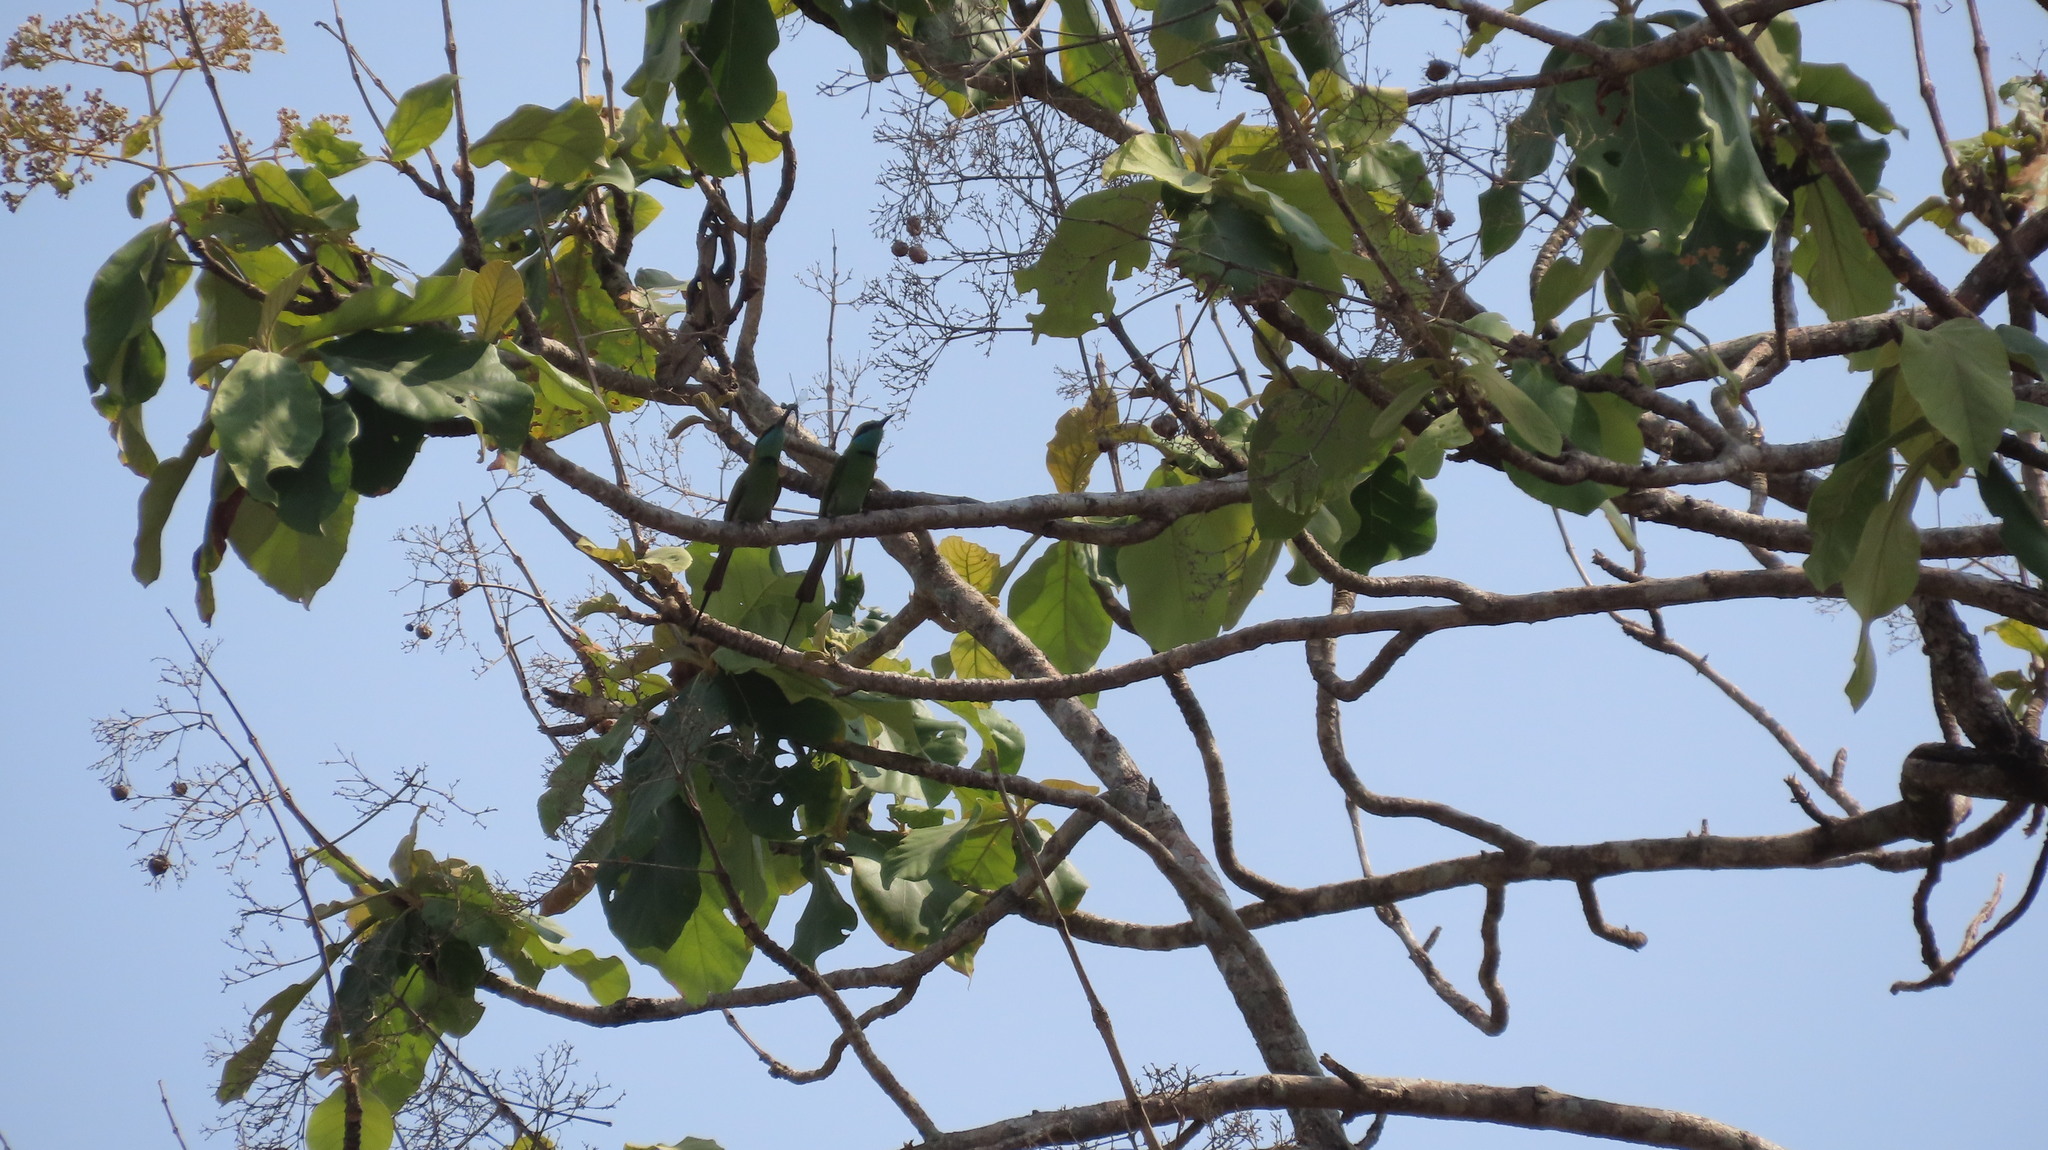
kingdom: Animalia
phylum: Chordata
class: Aves
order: Coraciiformes
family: Meropidae
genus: Merops
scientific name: Merops orientalis
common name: Green bee-eater
